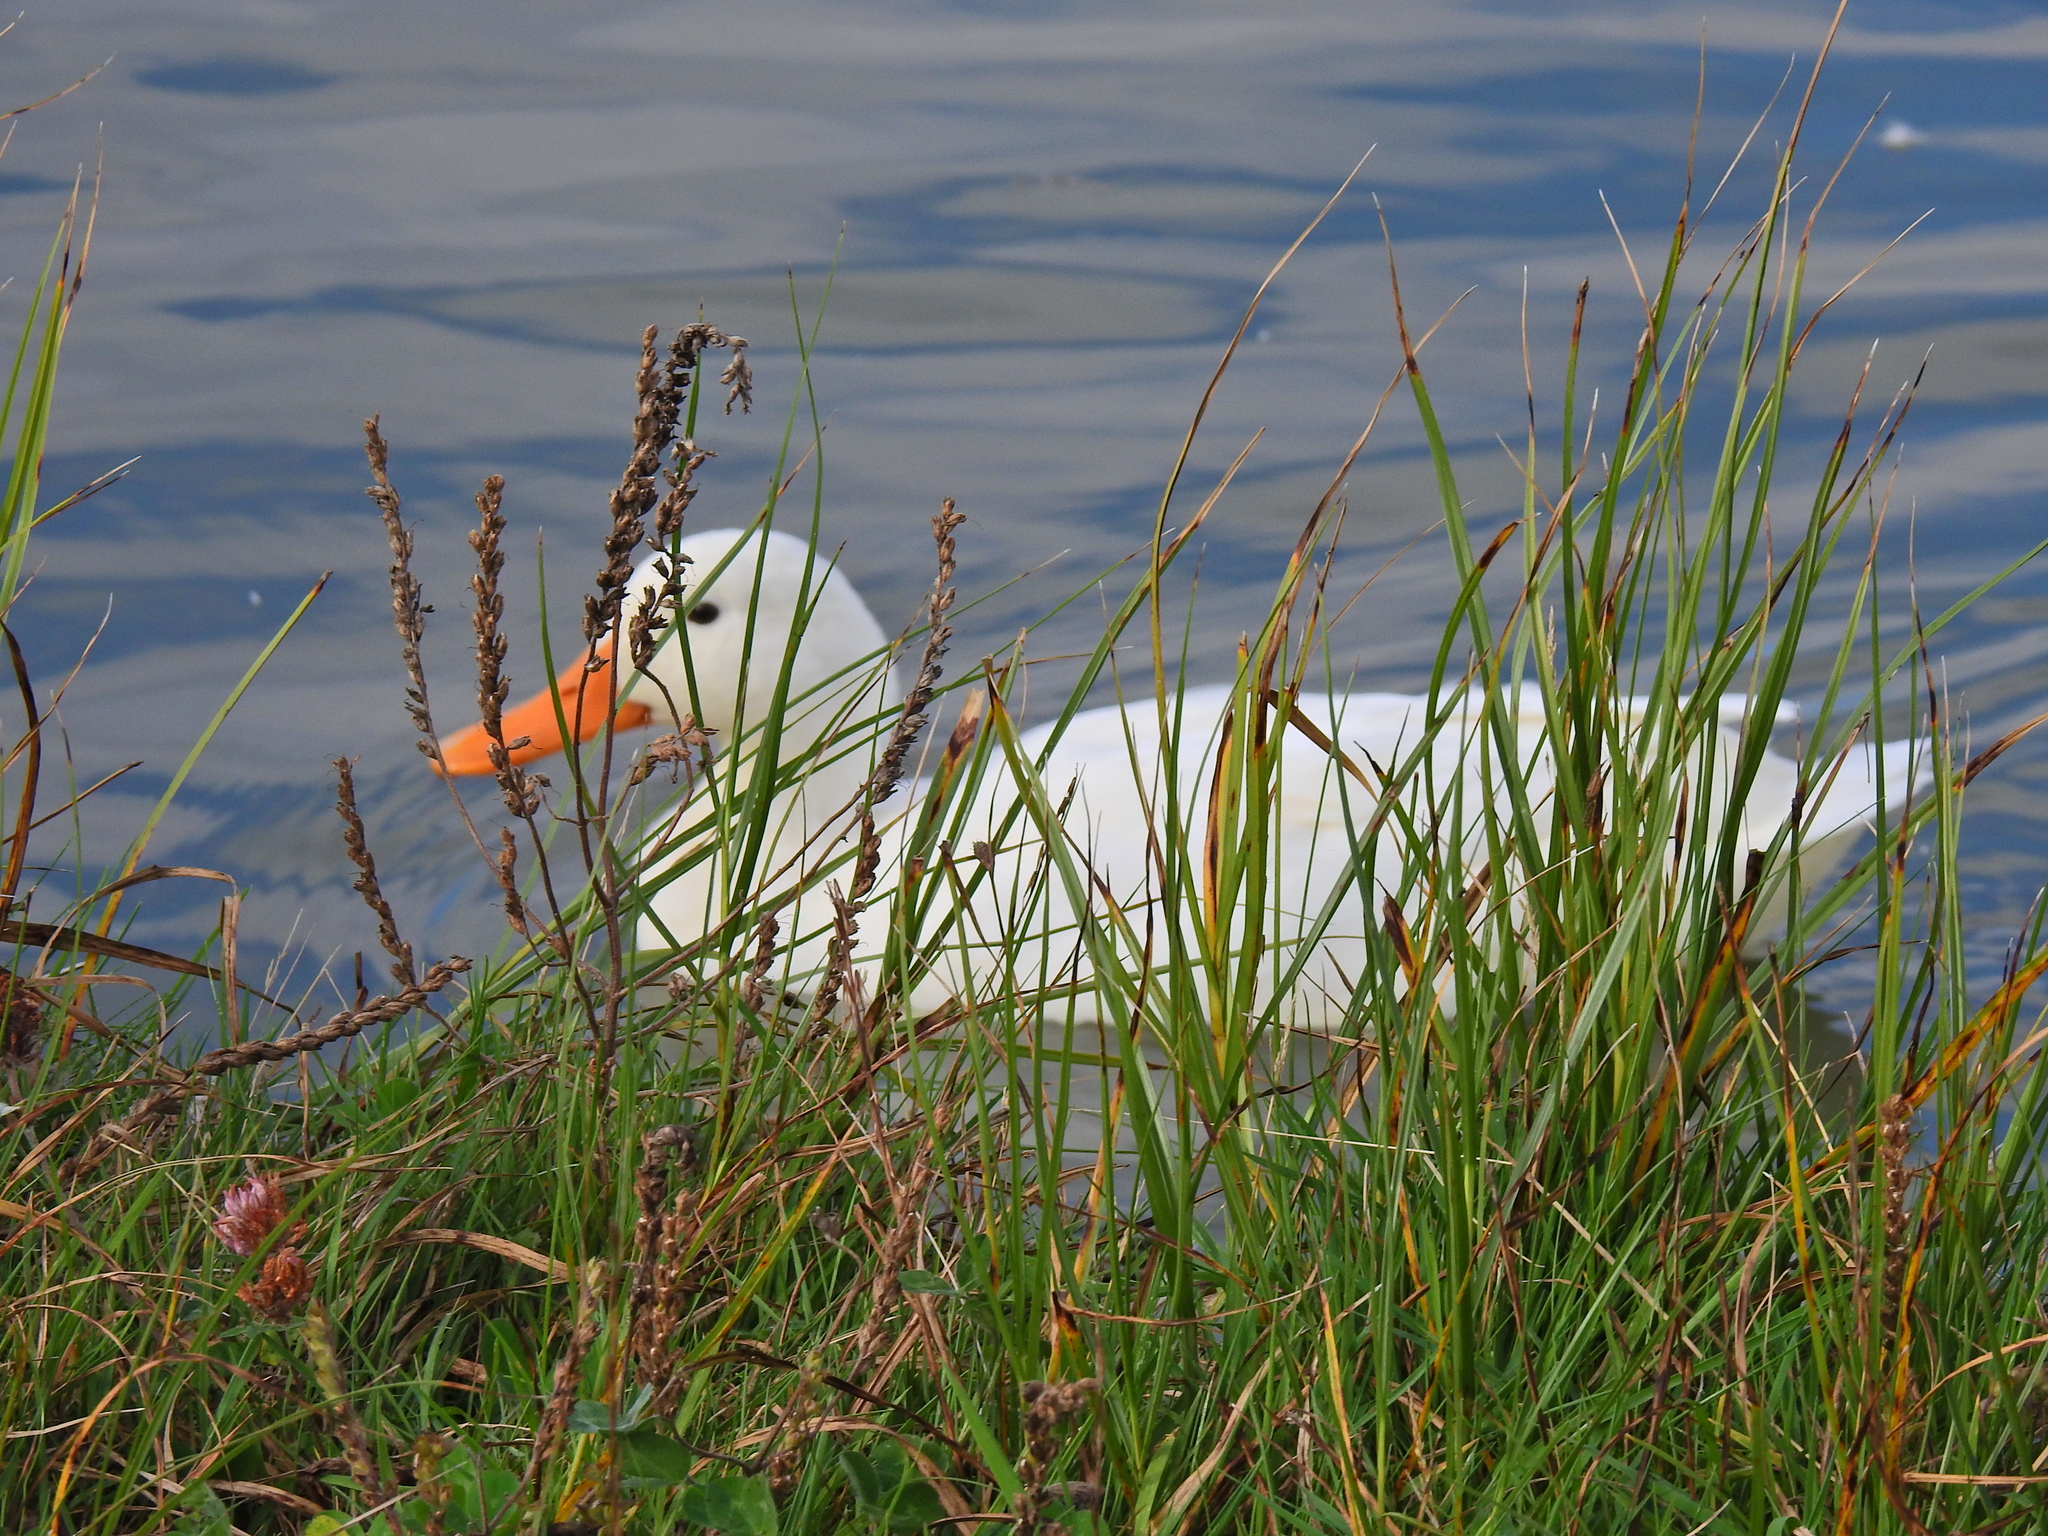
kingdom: Animalia
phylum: Chordata
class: Aves
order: Anseriformes
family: Anatidae
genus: Anas
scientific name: Anas platyrhynchos
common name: Mallard
